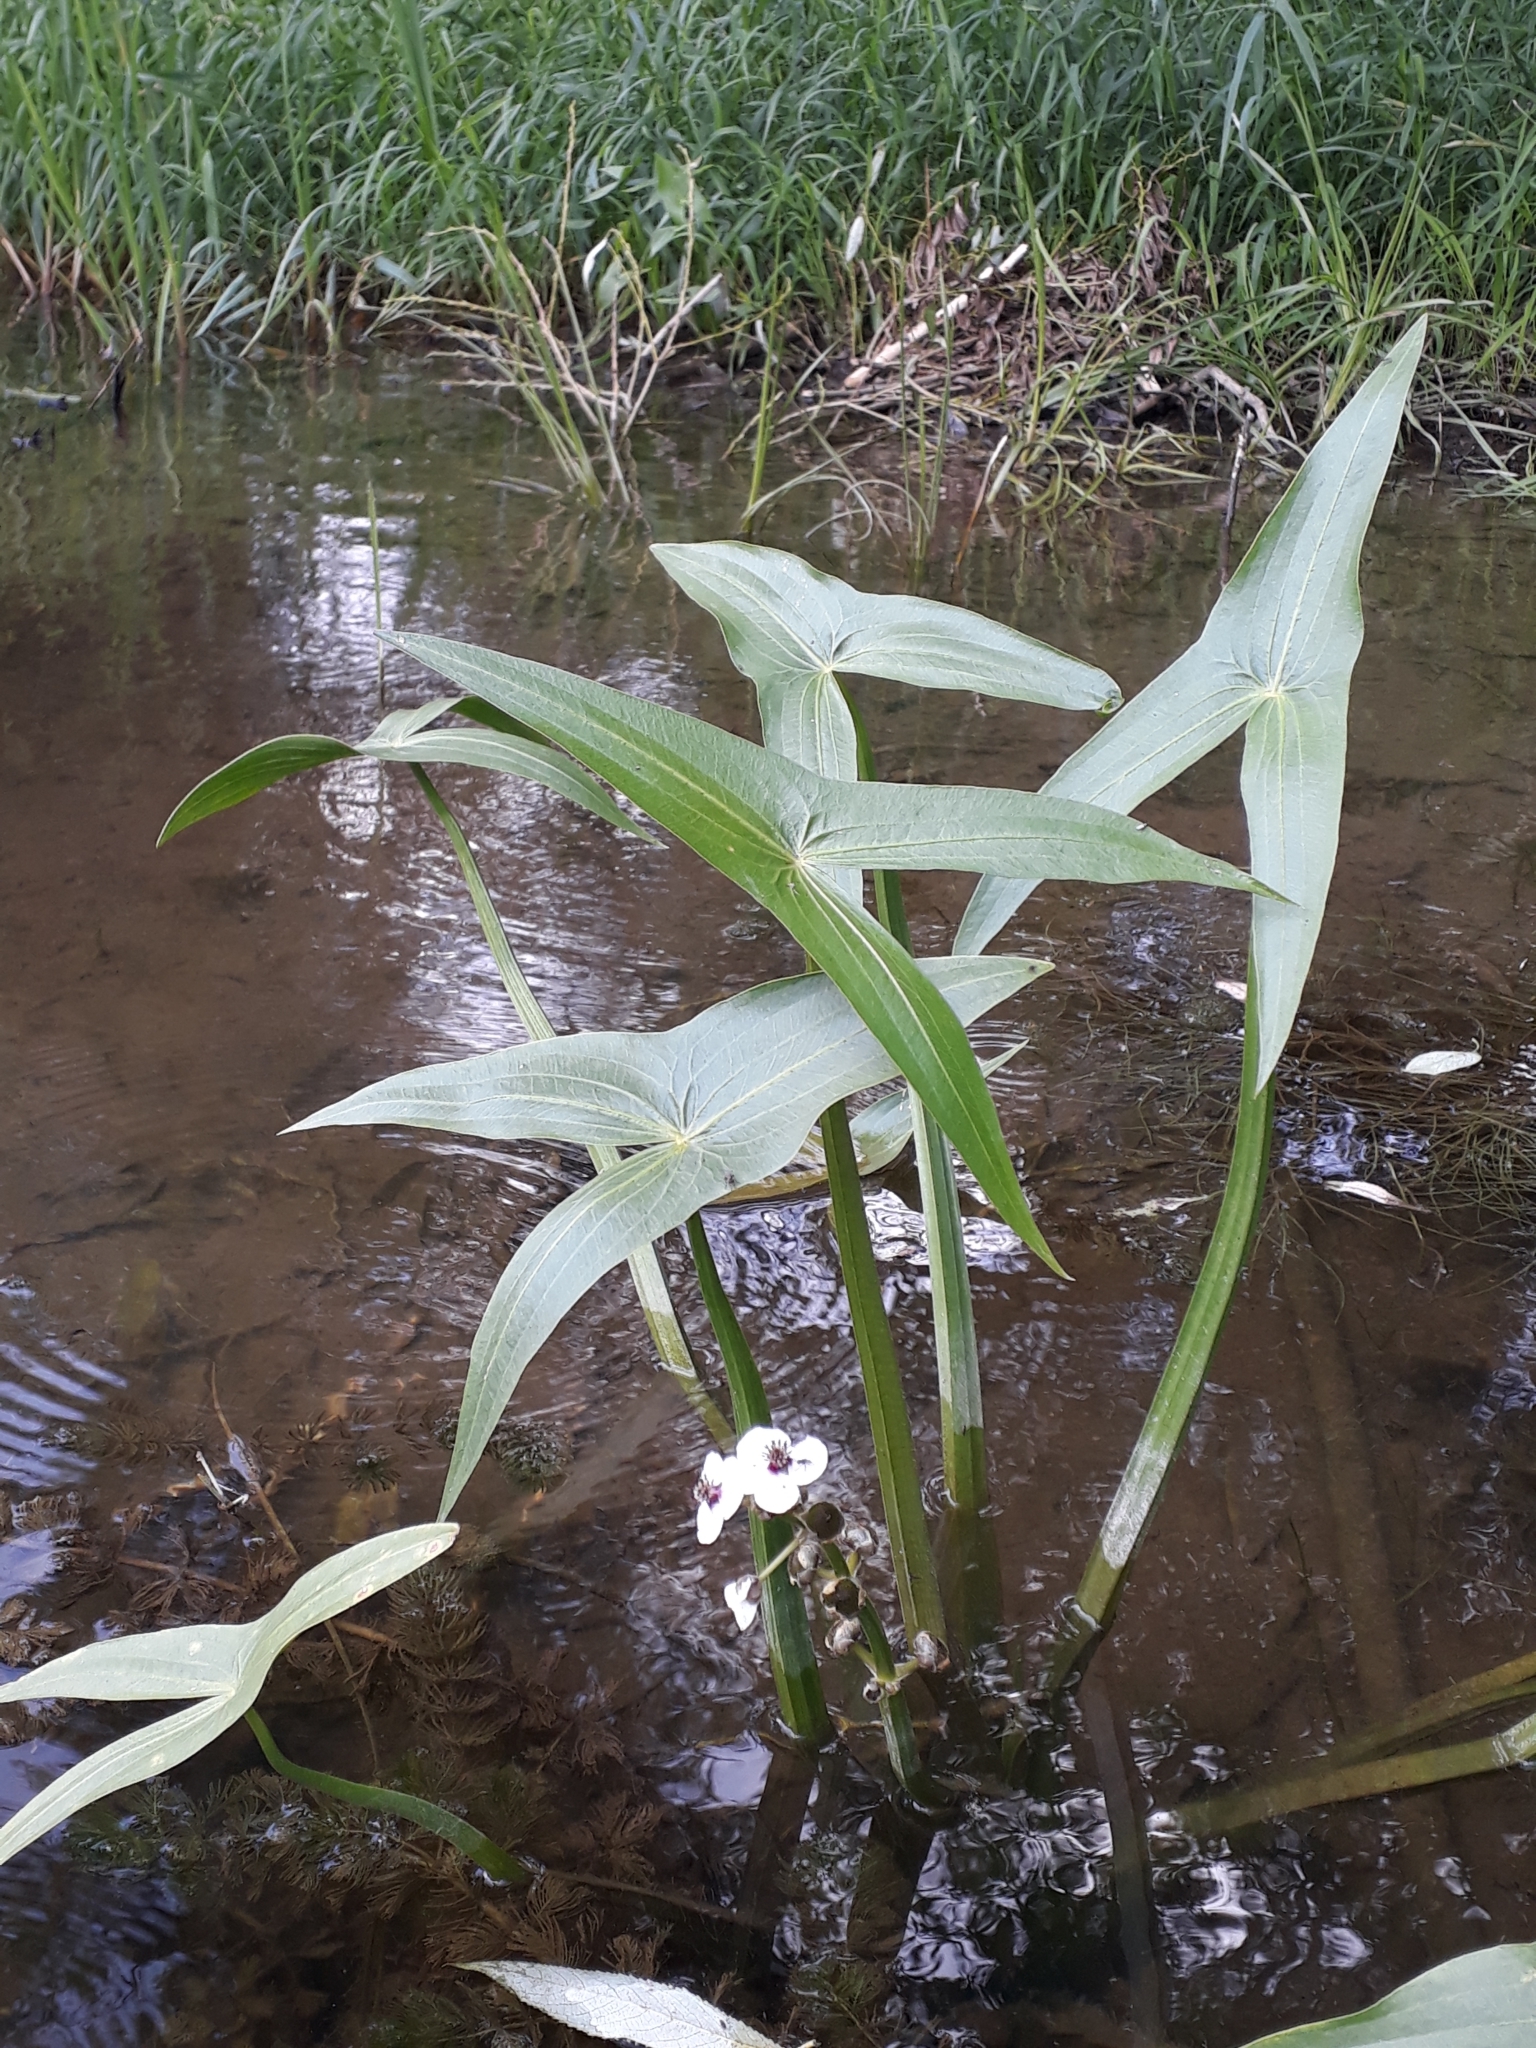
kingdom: Plantae
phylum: Tracheophyta
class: Liliopsida
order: Alismatales
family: Alismataceae
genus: Sagittaria
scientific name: Sagittaria sagittifolia
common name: Arrowhead
